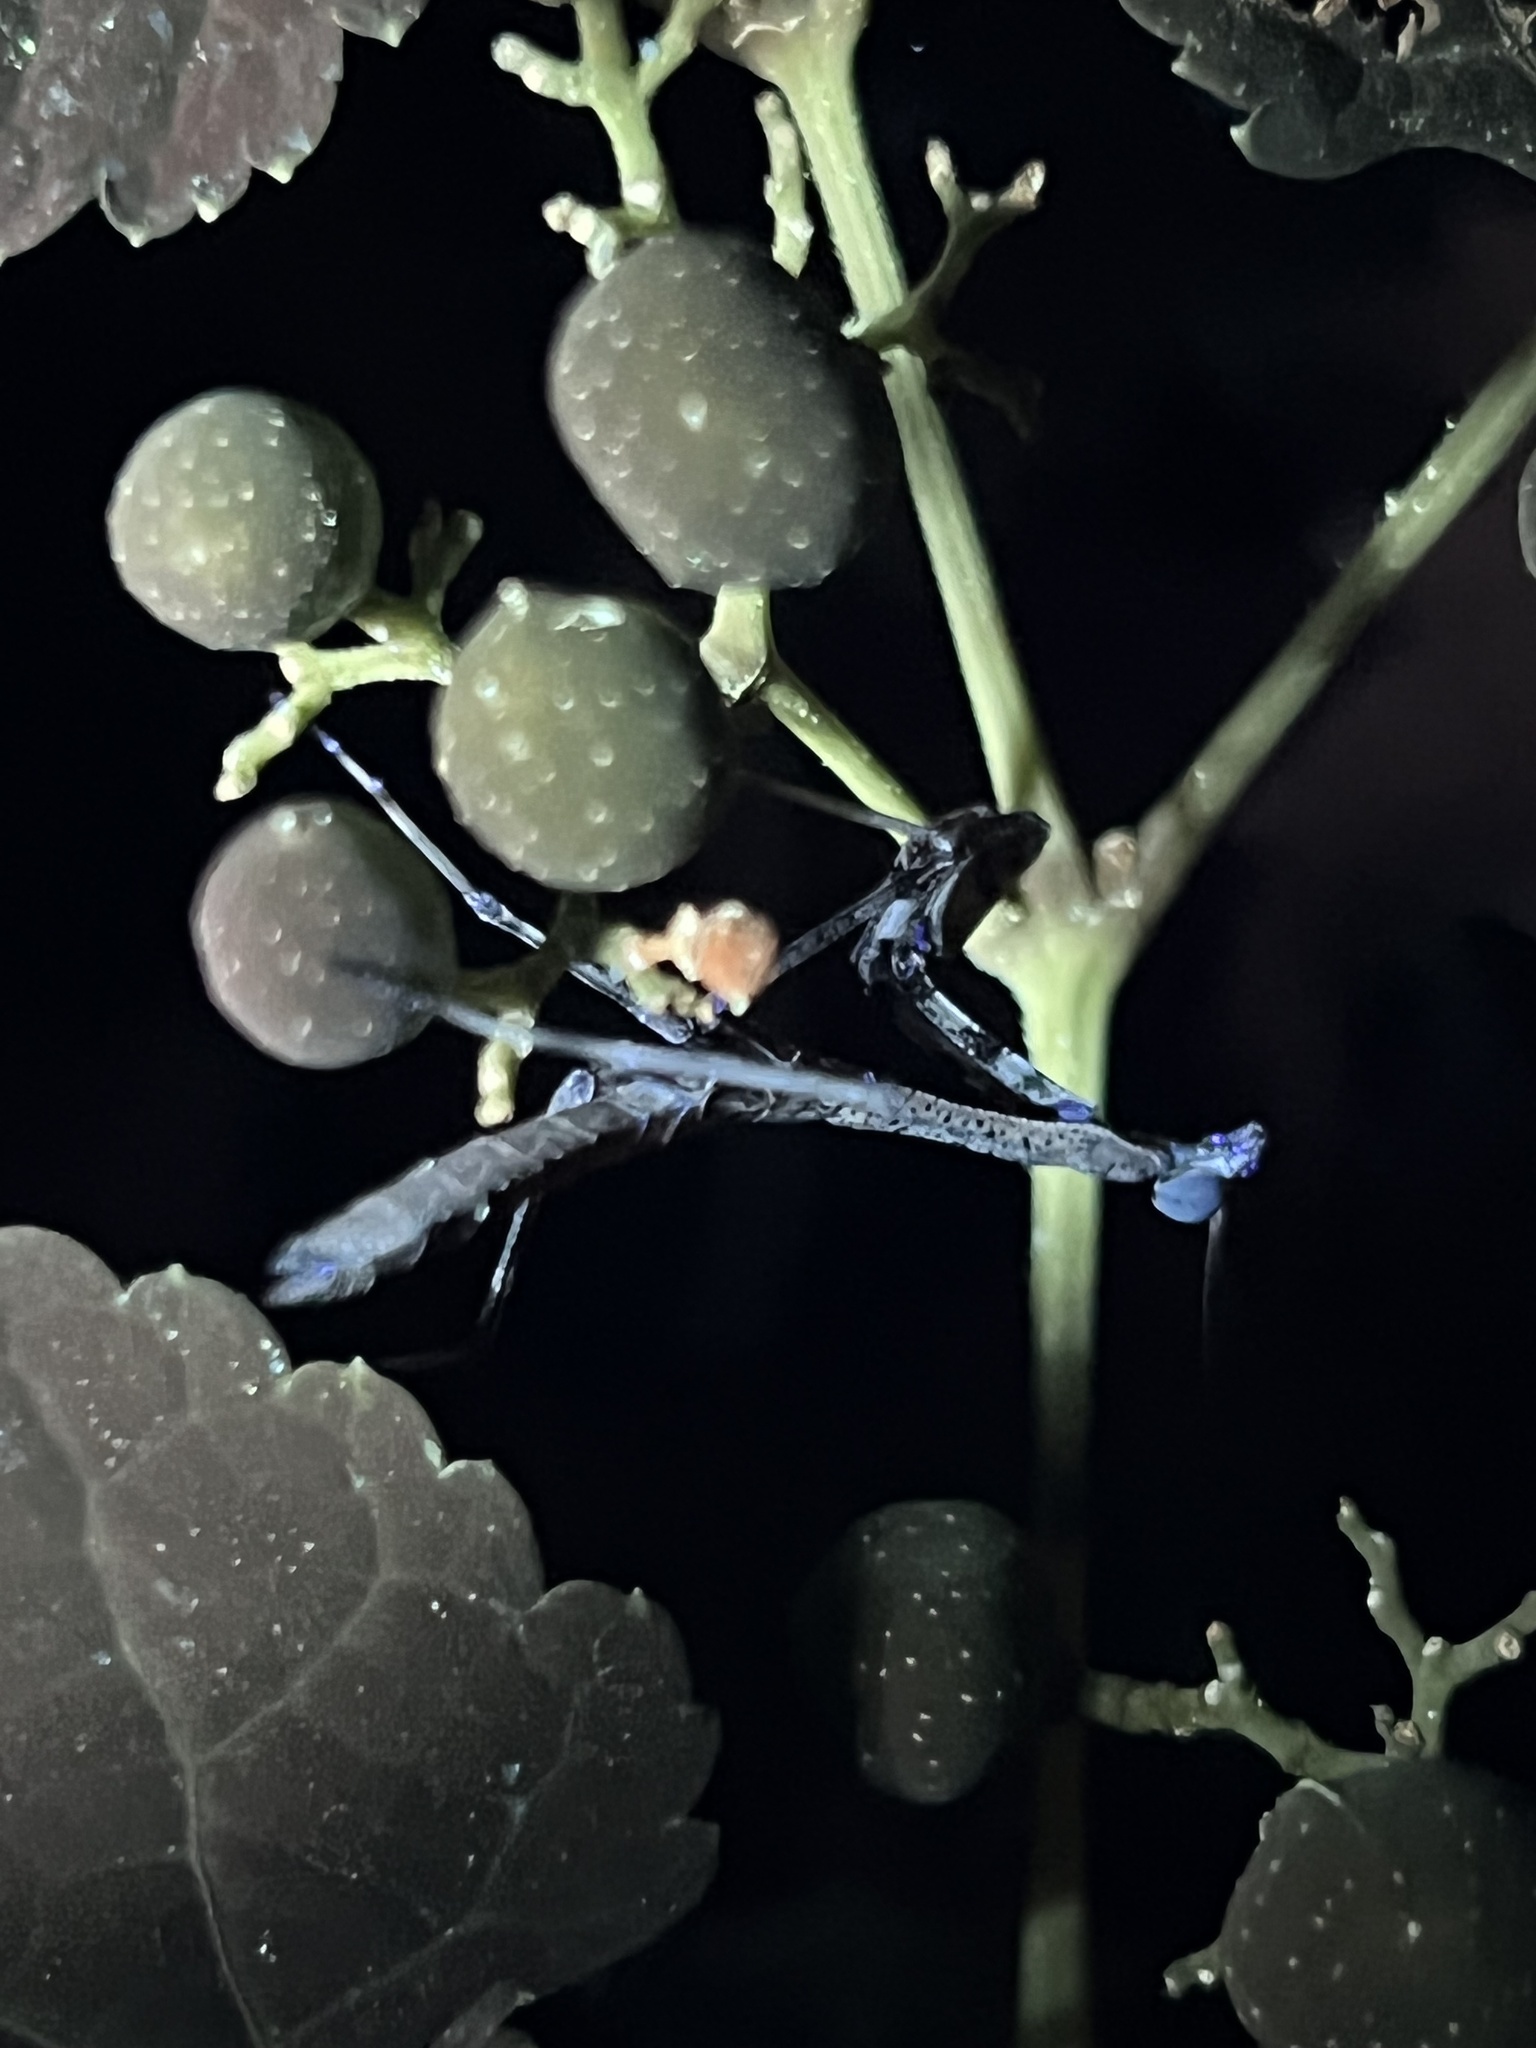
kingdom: Animalia
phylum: Arthropoda
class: Insecta
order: Mantodea
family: Mantidae
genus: Stagmomantis
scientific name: Stagmomantis carolina
